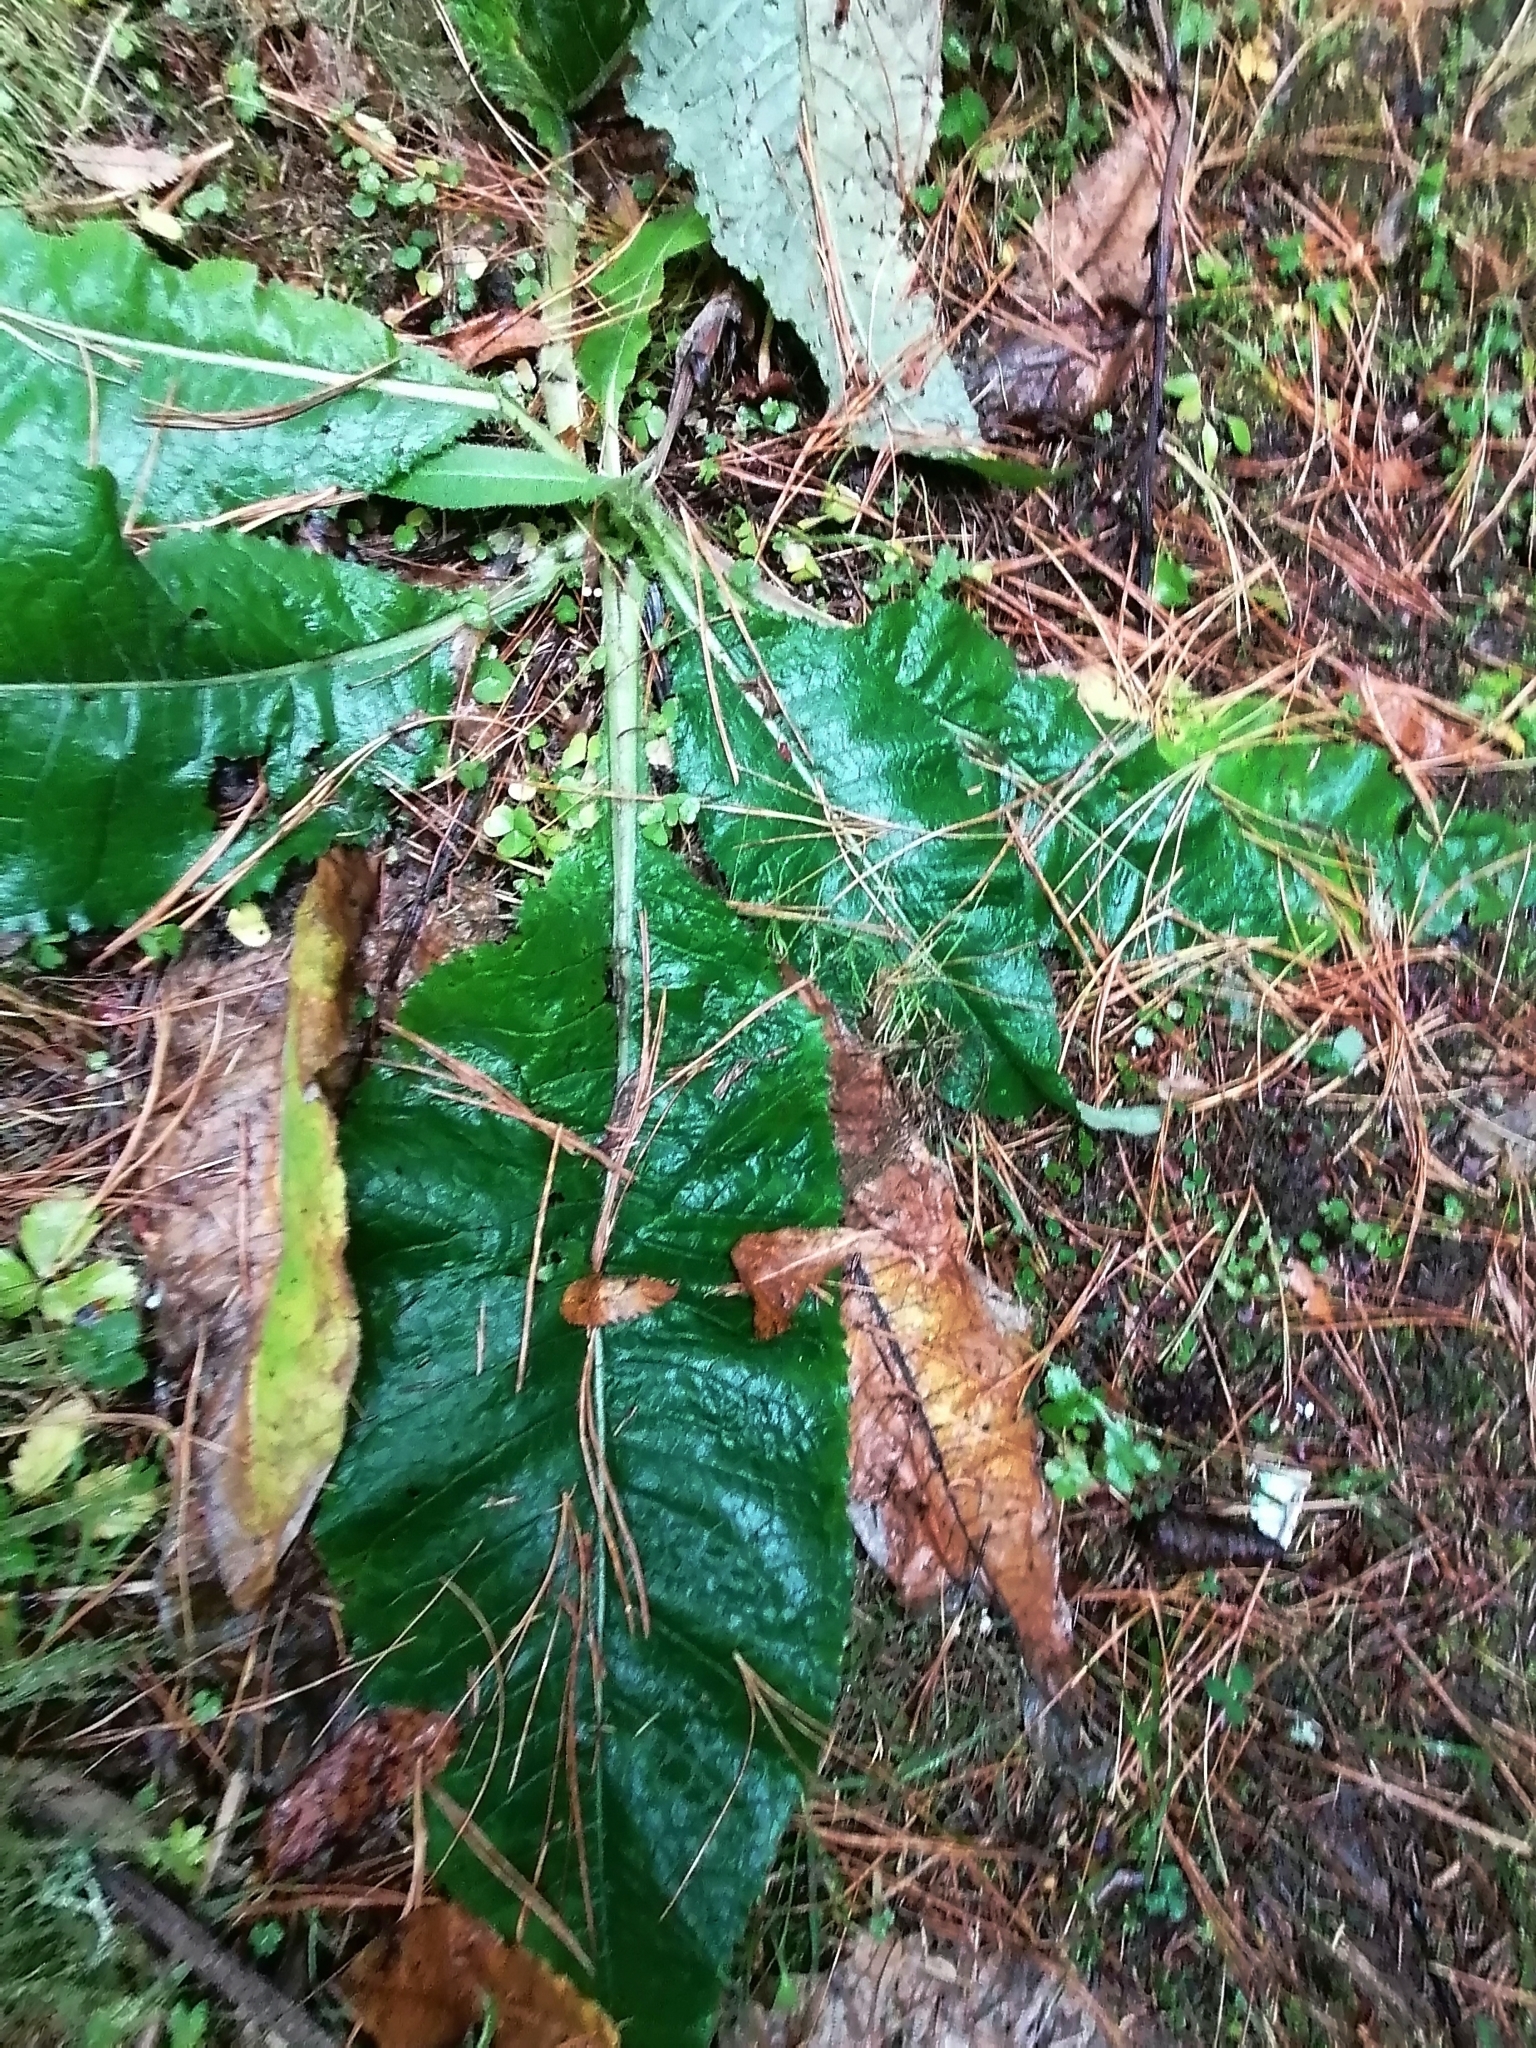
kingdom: Plantae
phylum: Tracheophyta
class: Magnoliopsida
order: Asterales
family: Asteraceae
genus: Cirsium
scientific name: Cirsium heterophyllum
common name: Melancholy thistle
